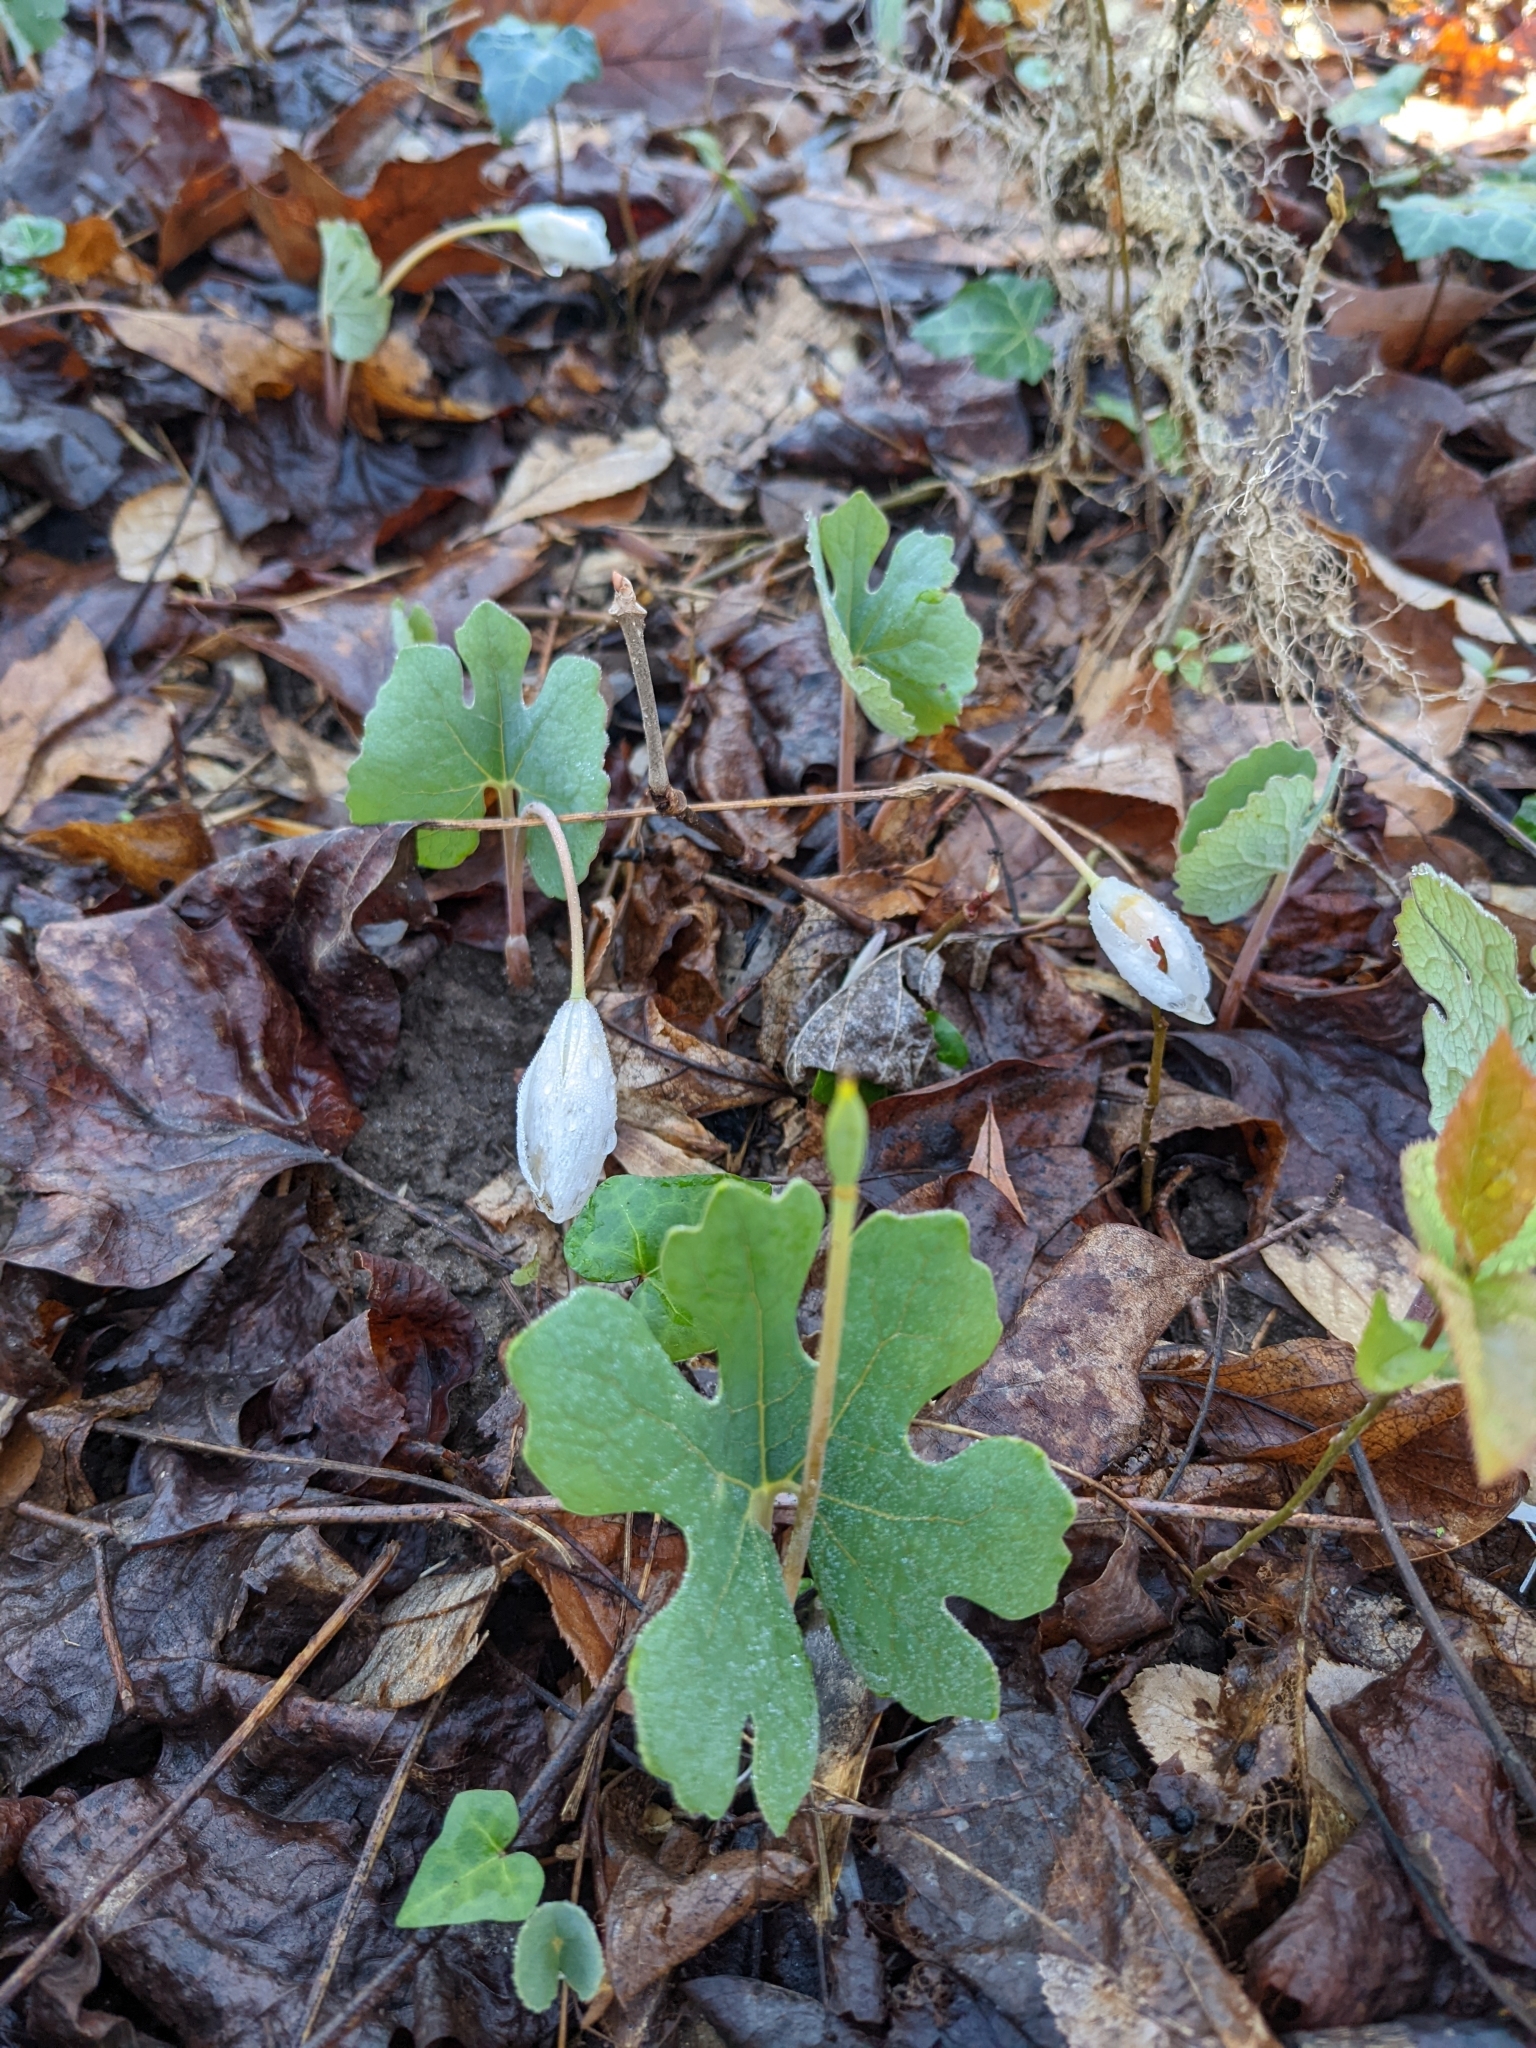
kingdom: Plantae
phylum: Tracheophyta
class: Magnoliopsida
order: Ranunculales
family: Papaveraceae
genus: Sanguinaria
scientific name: Sanguinaria canadensis
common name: Bloodroot
